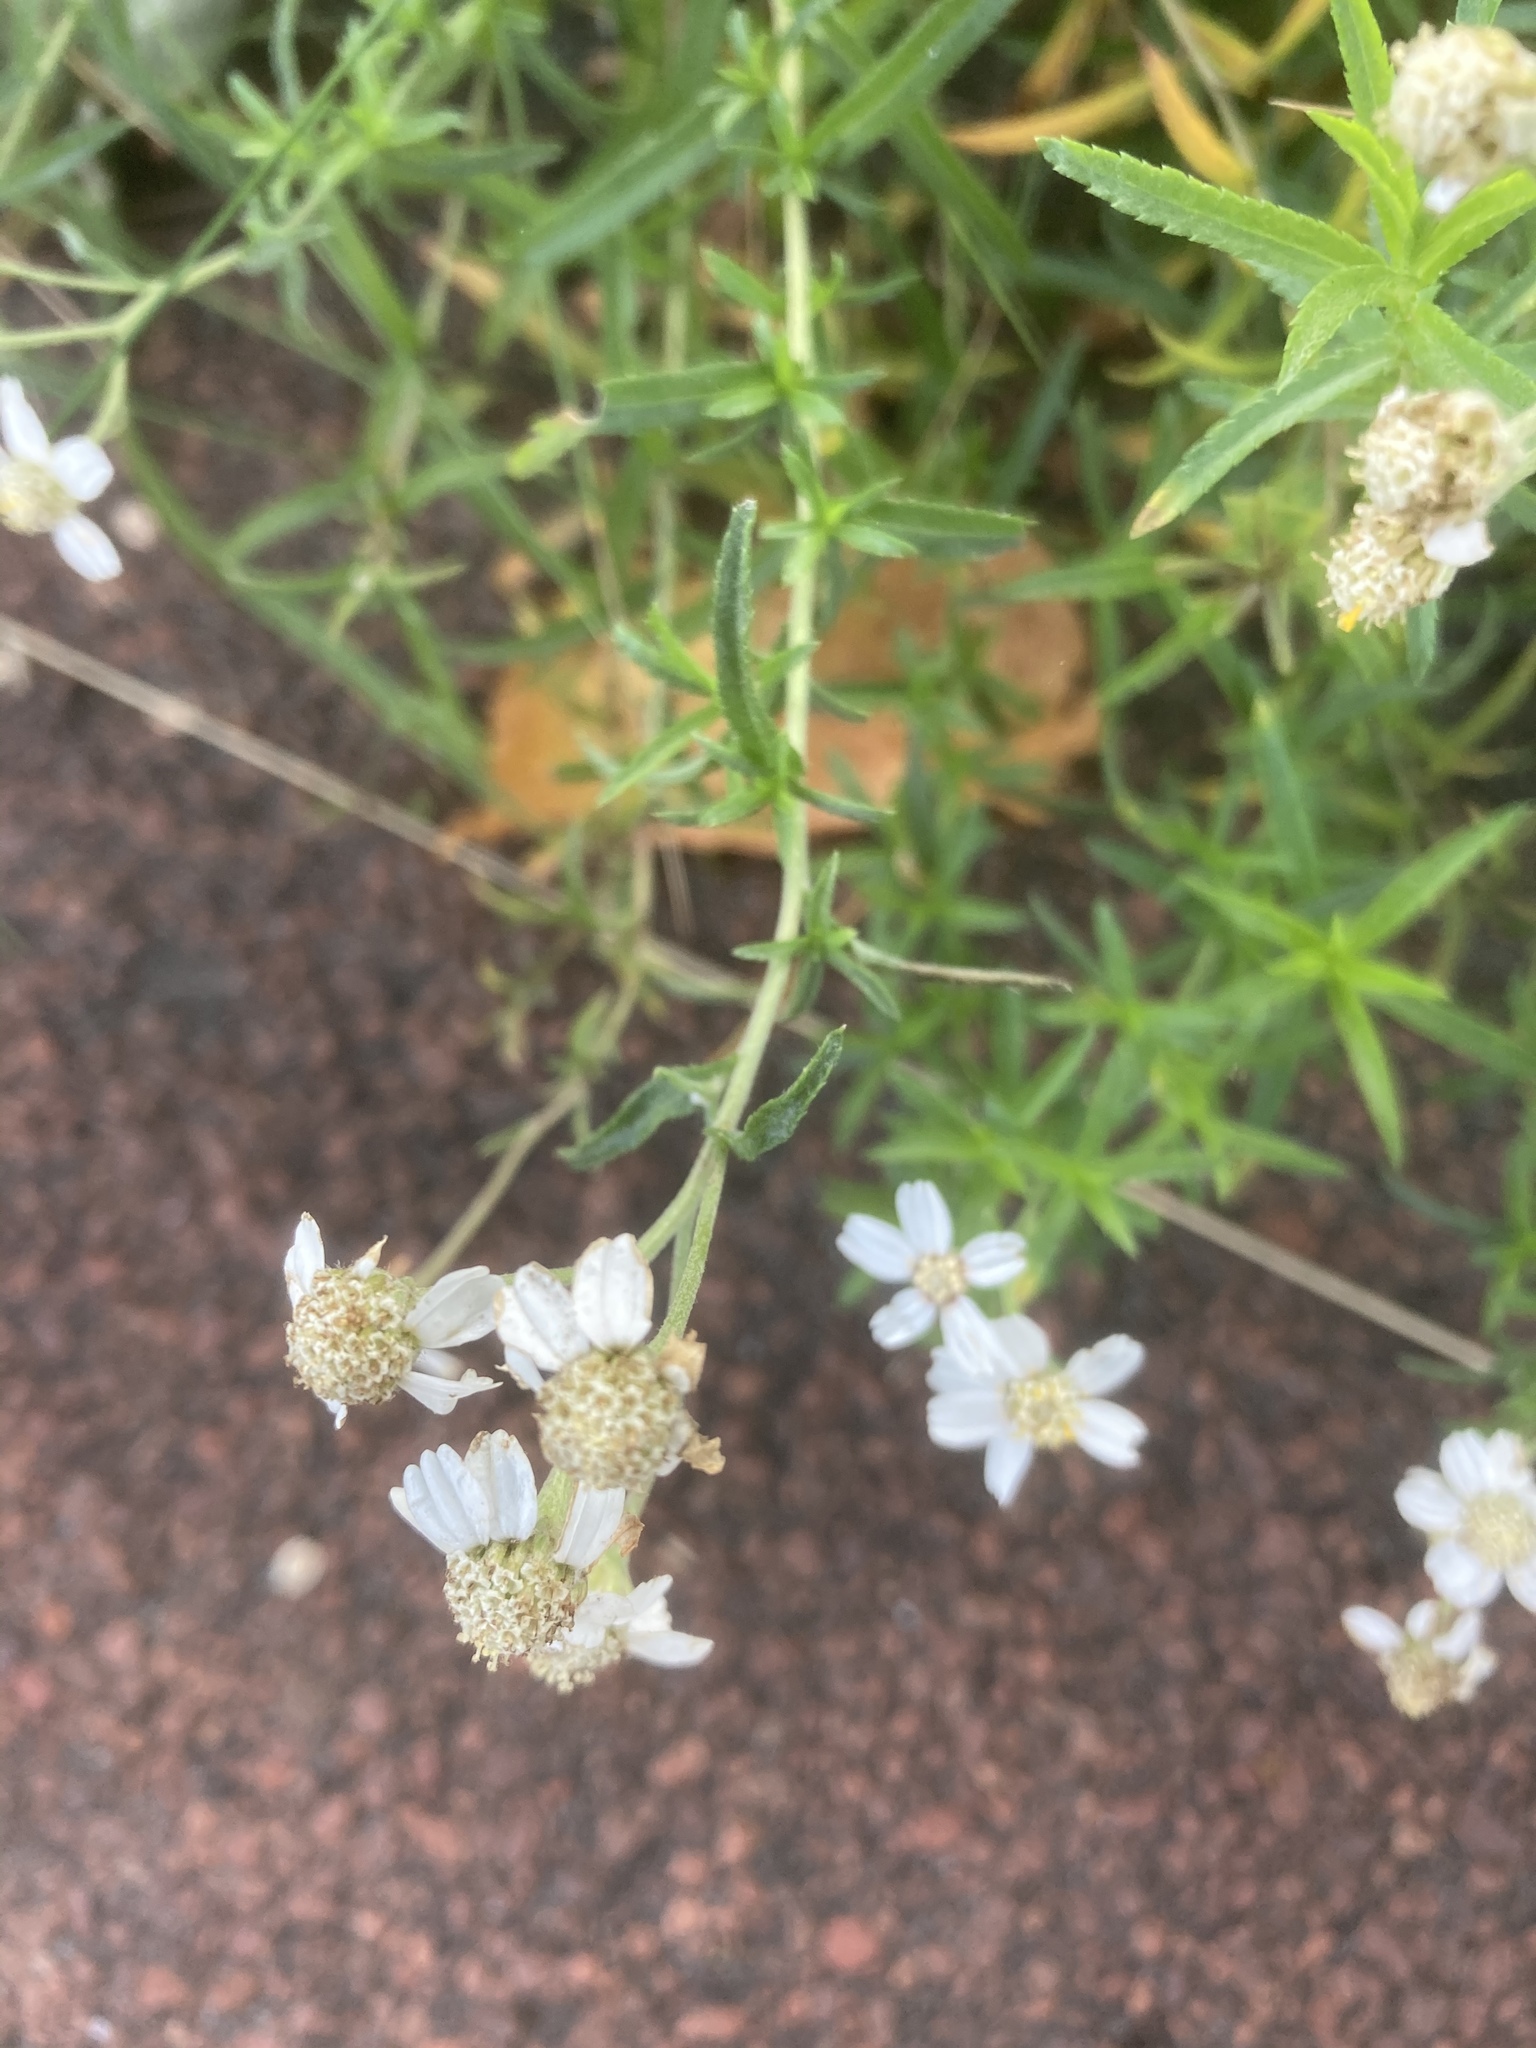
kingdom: Plantae
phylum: Tracheophyta
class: Magnoliopsida
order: Asterales
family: Asteraceae
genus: Achillea
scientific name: Achillea ptarmica
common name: Sneezeweed
